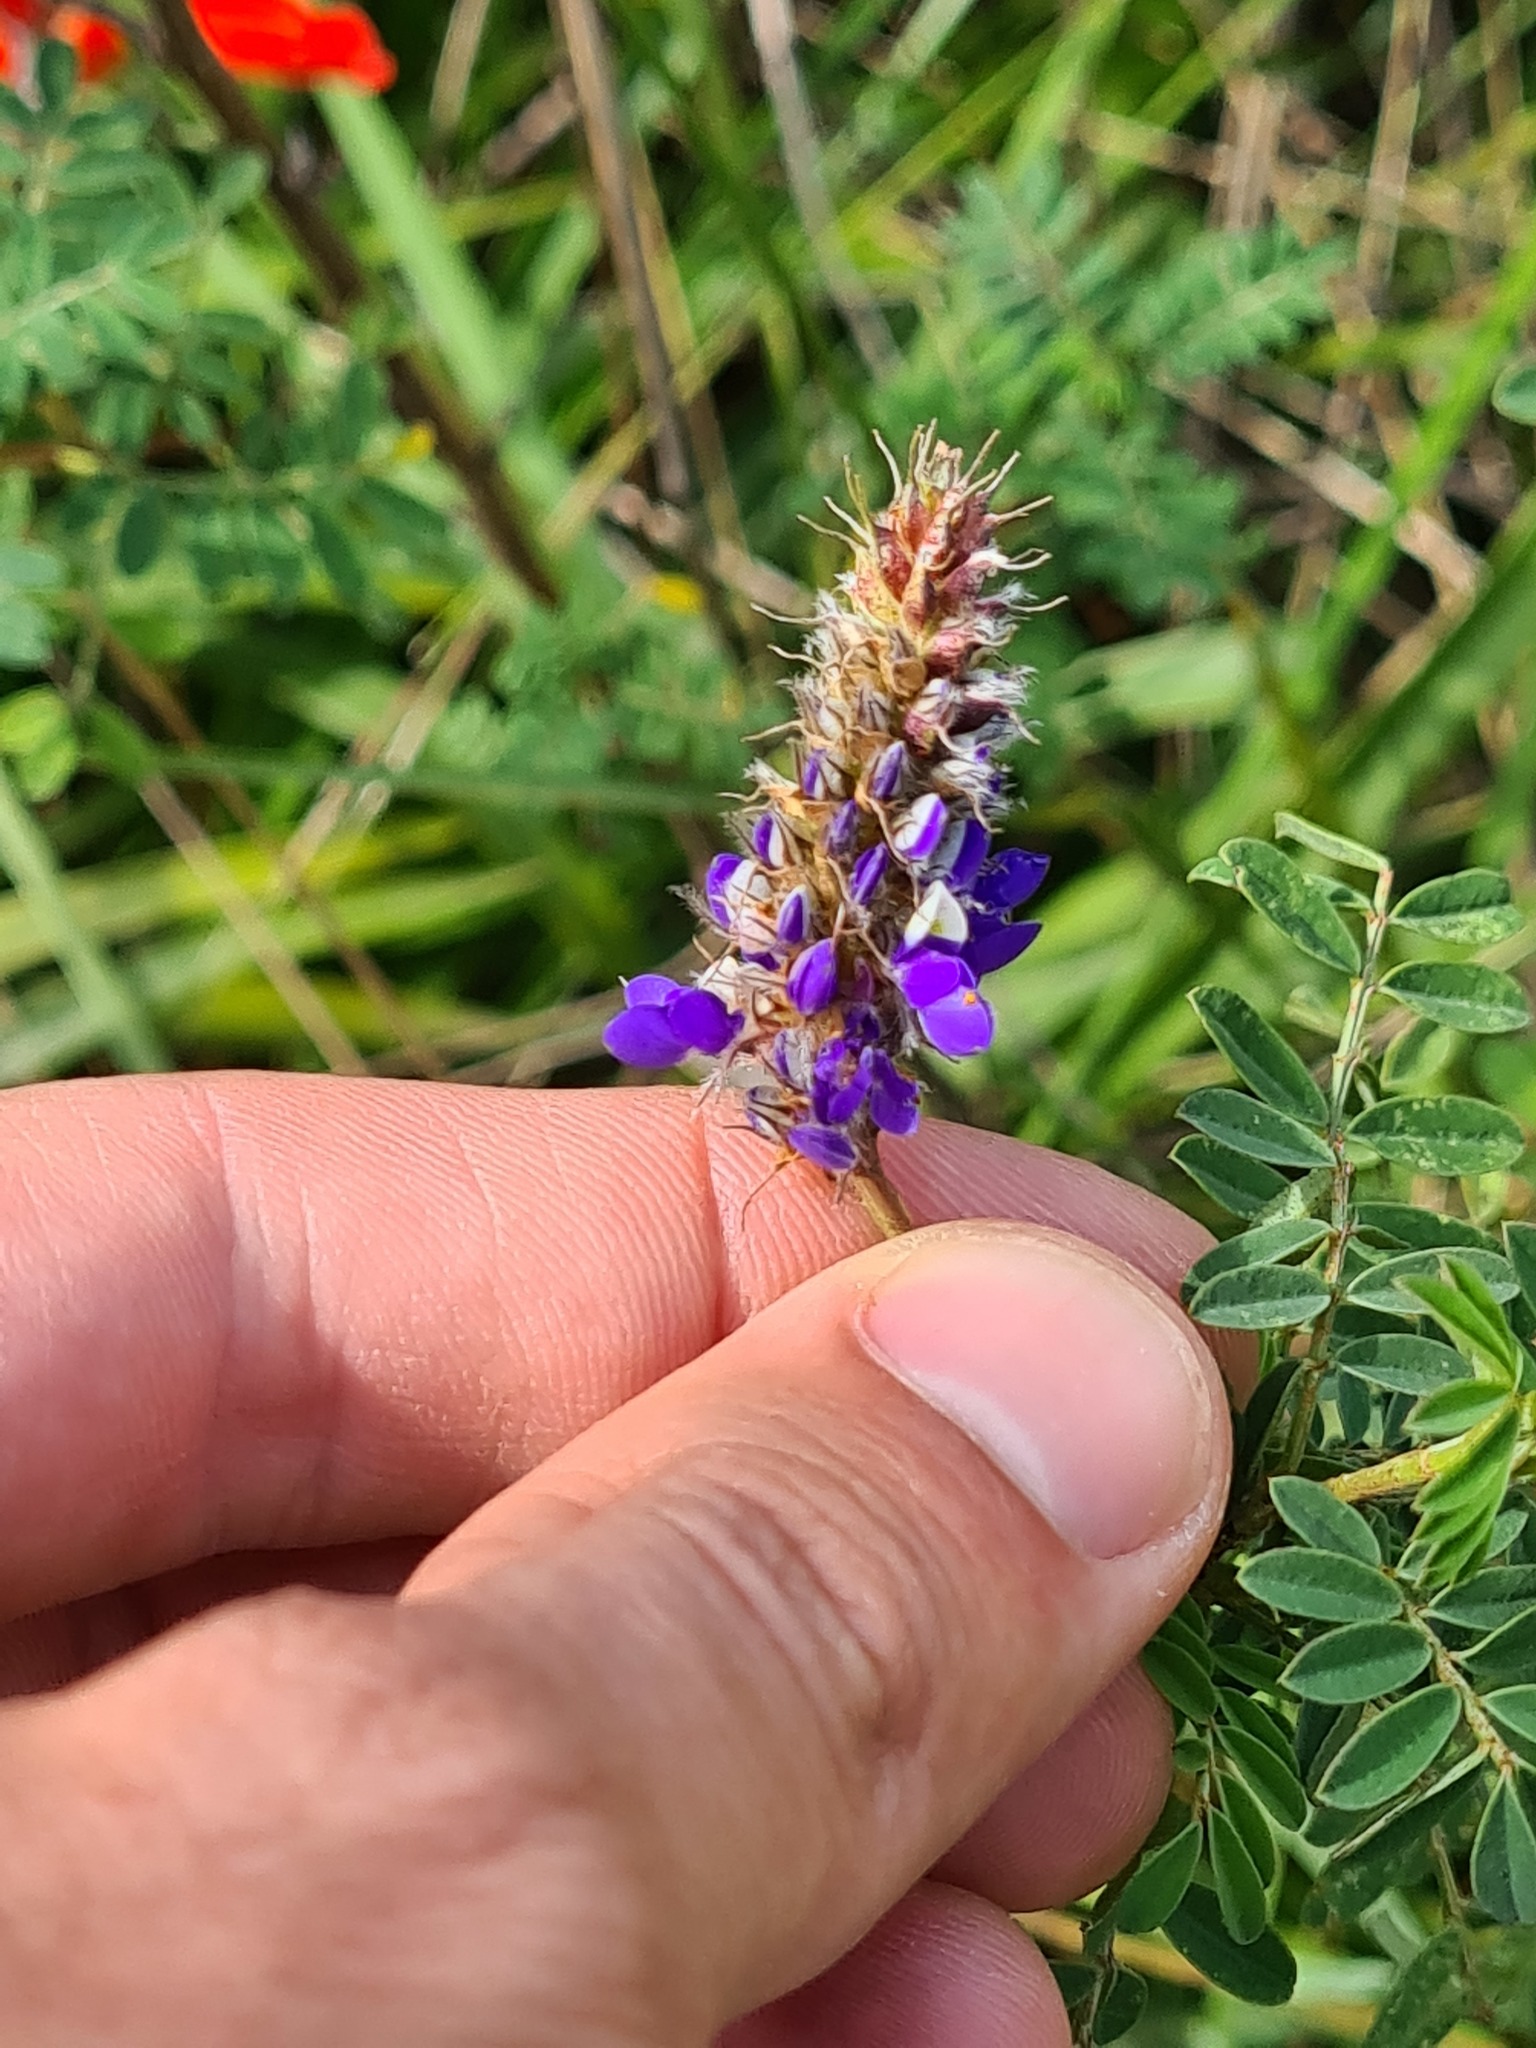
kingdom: Plantae
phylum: Tracheophyta
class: Magnoliopsida
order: Fabales
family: Fabaceae
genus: Dalea
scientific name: Dalea coerulea
